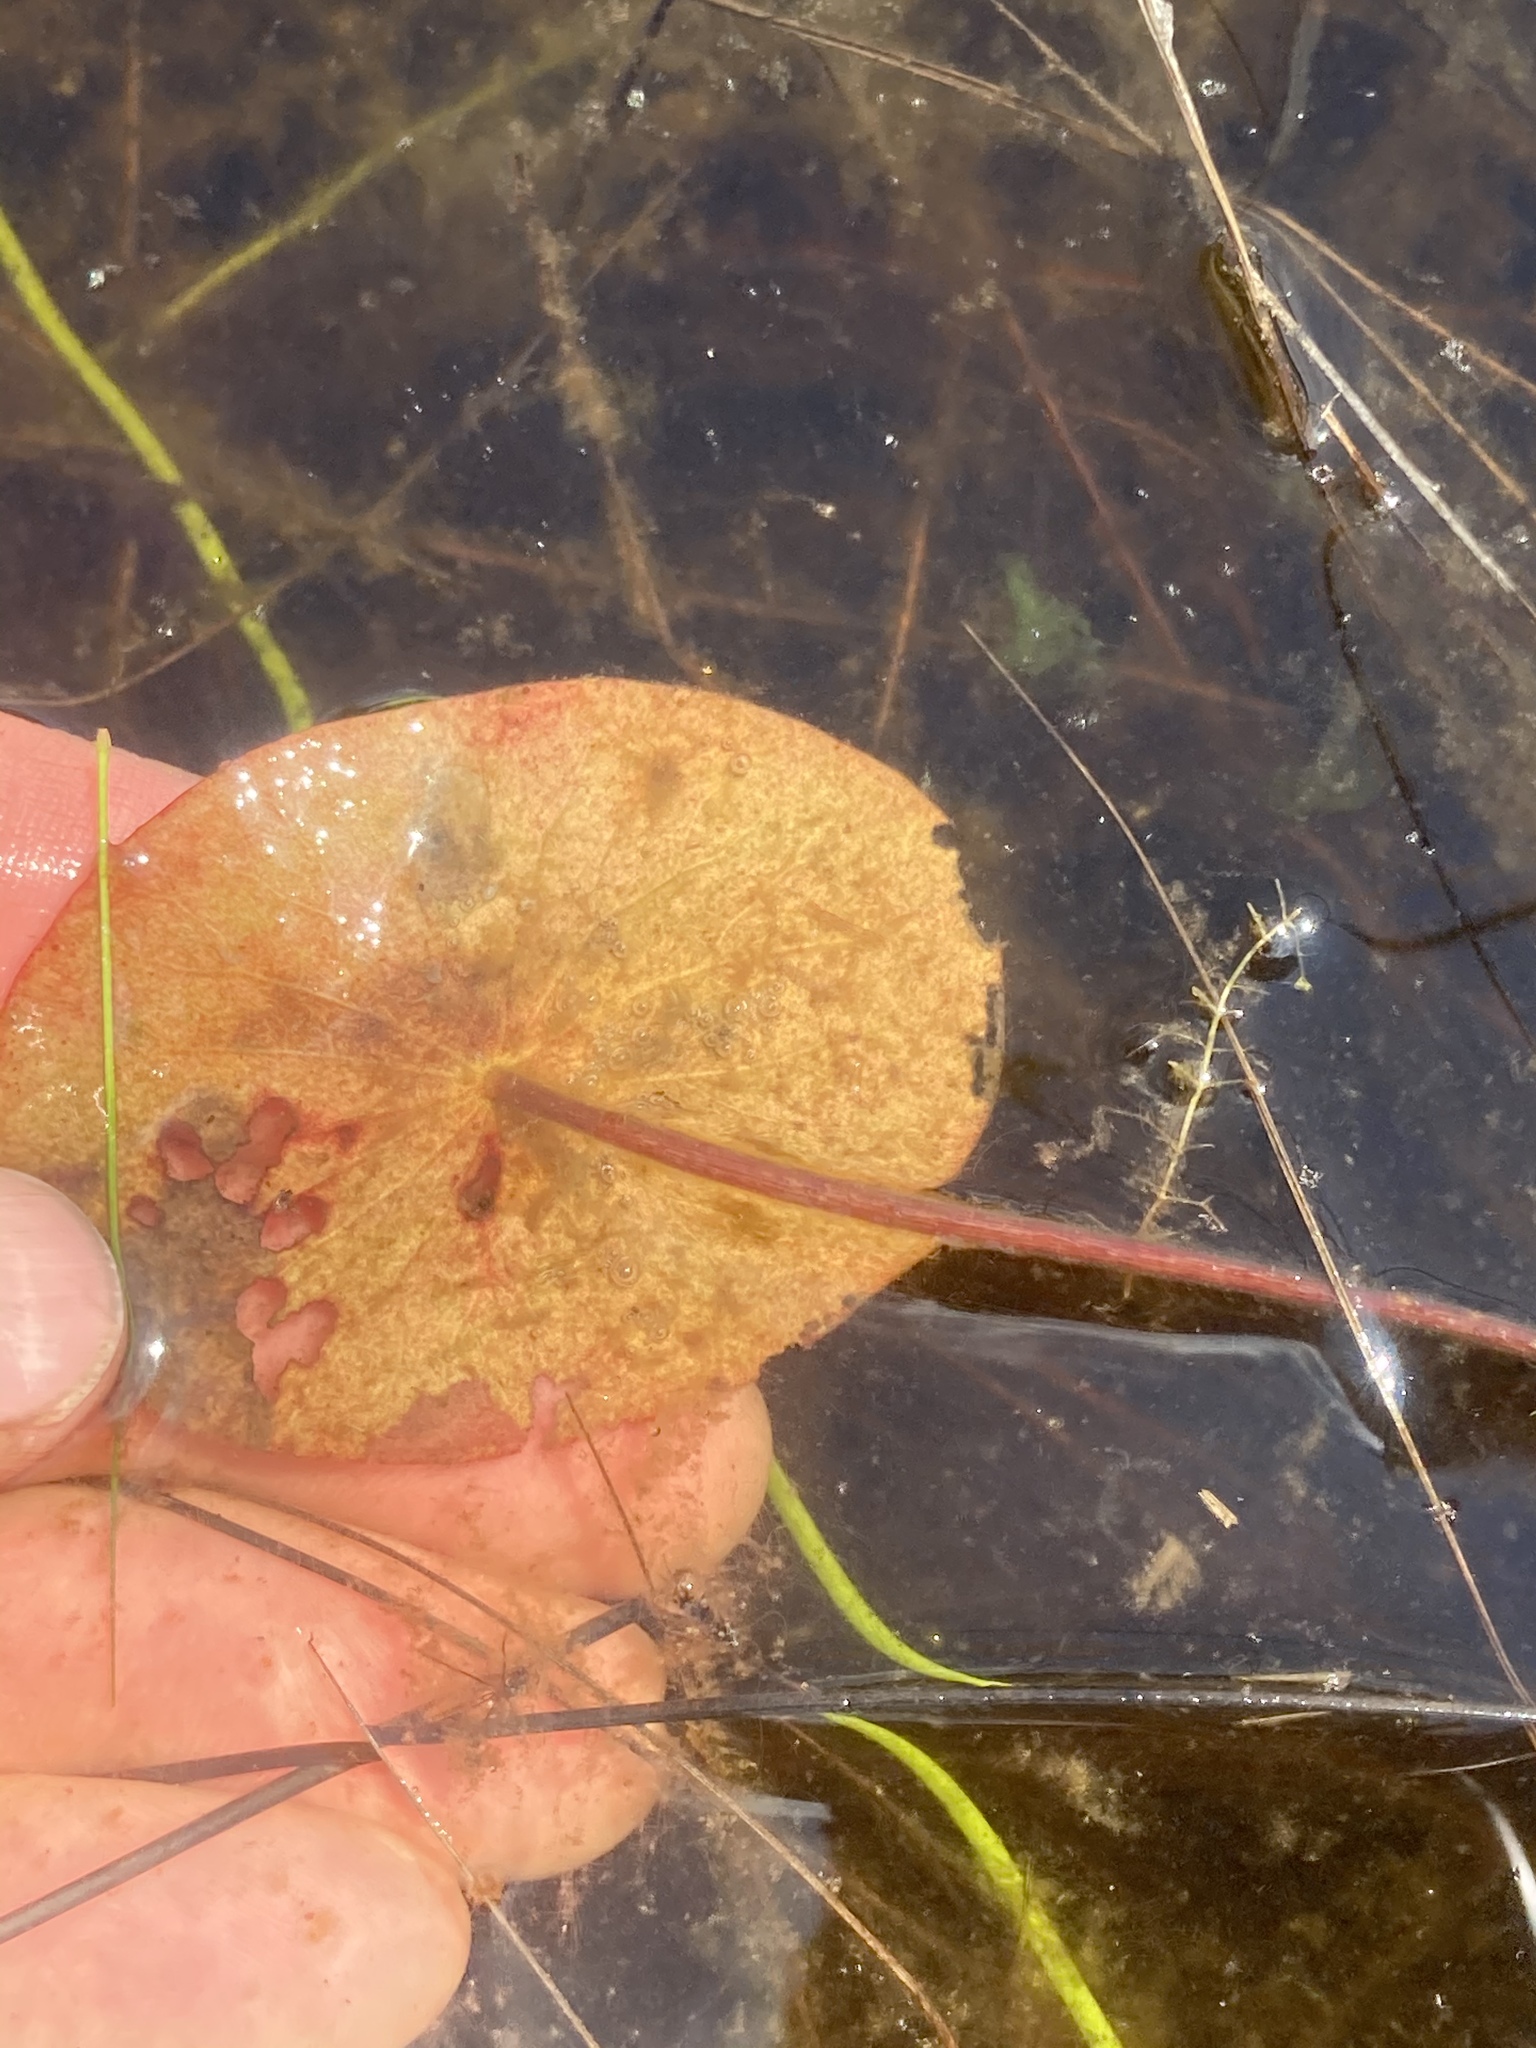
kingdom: Plantae
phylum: Tracheophyta
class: Magnoliopsida
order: Nymphaeales
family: Cabombaceae
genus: Brasenia
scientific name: Brasenia schreberi
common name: Water-shield
